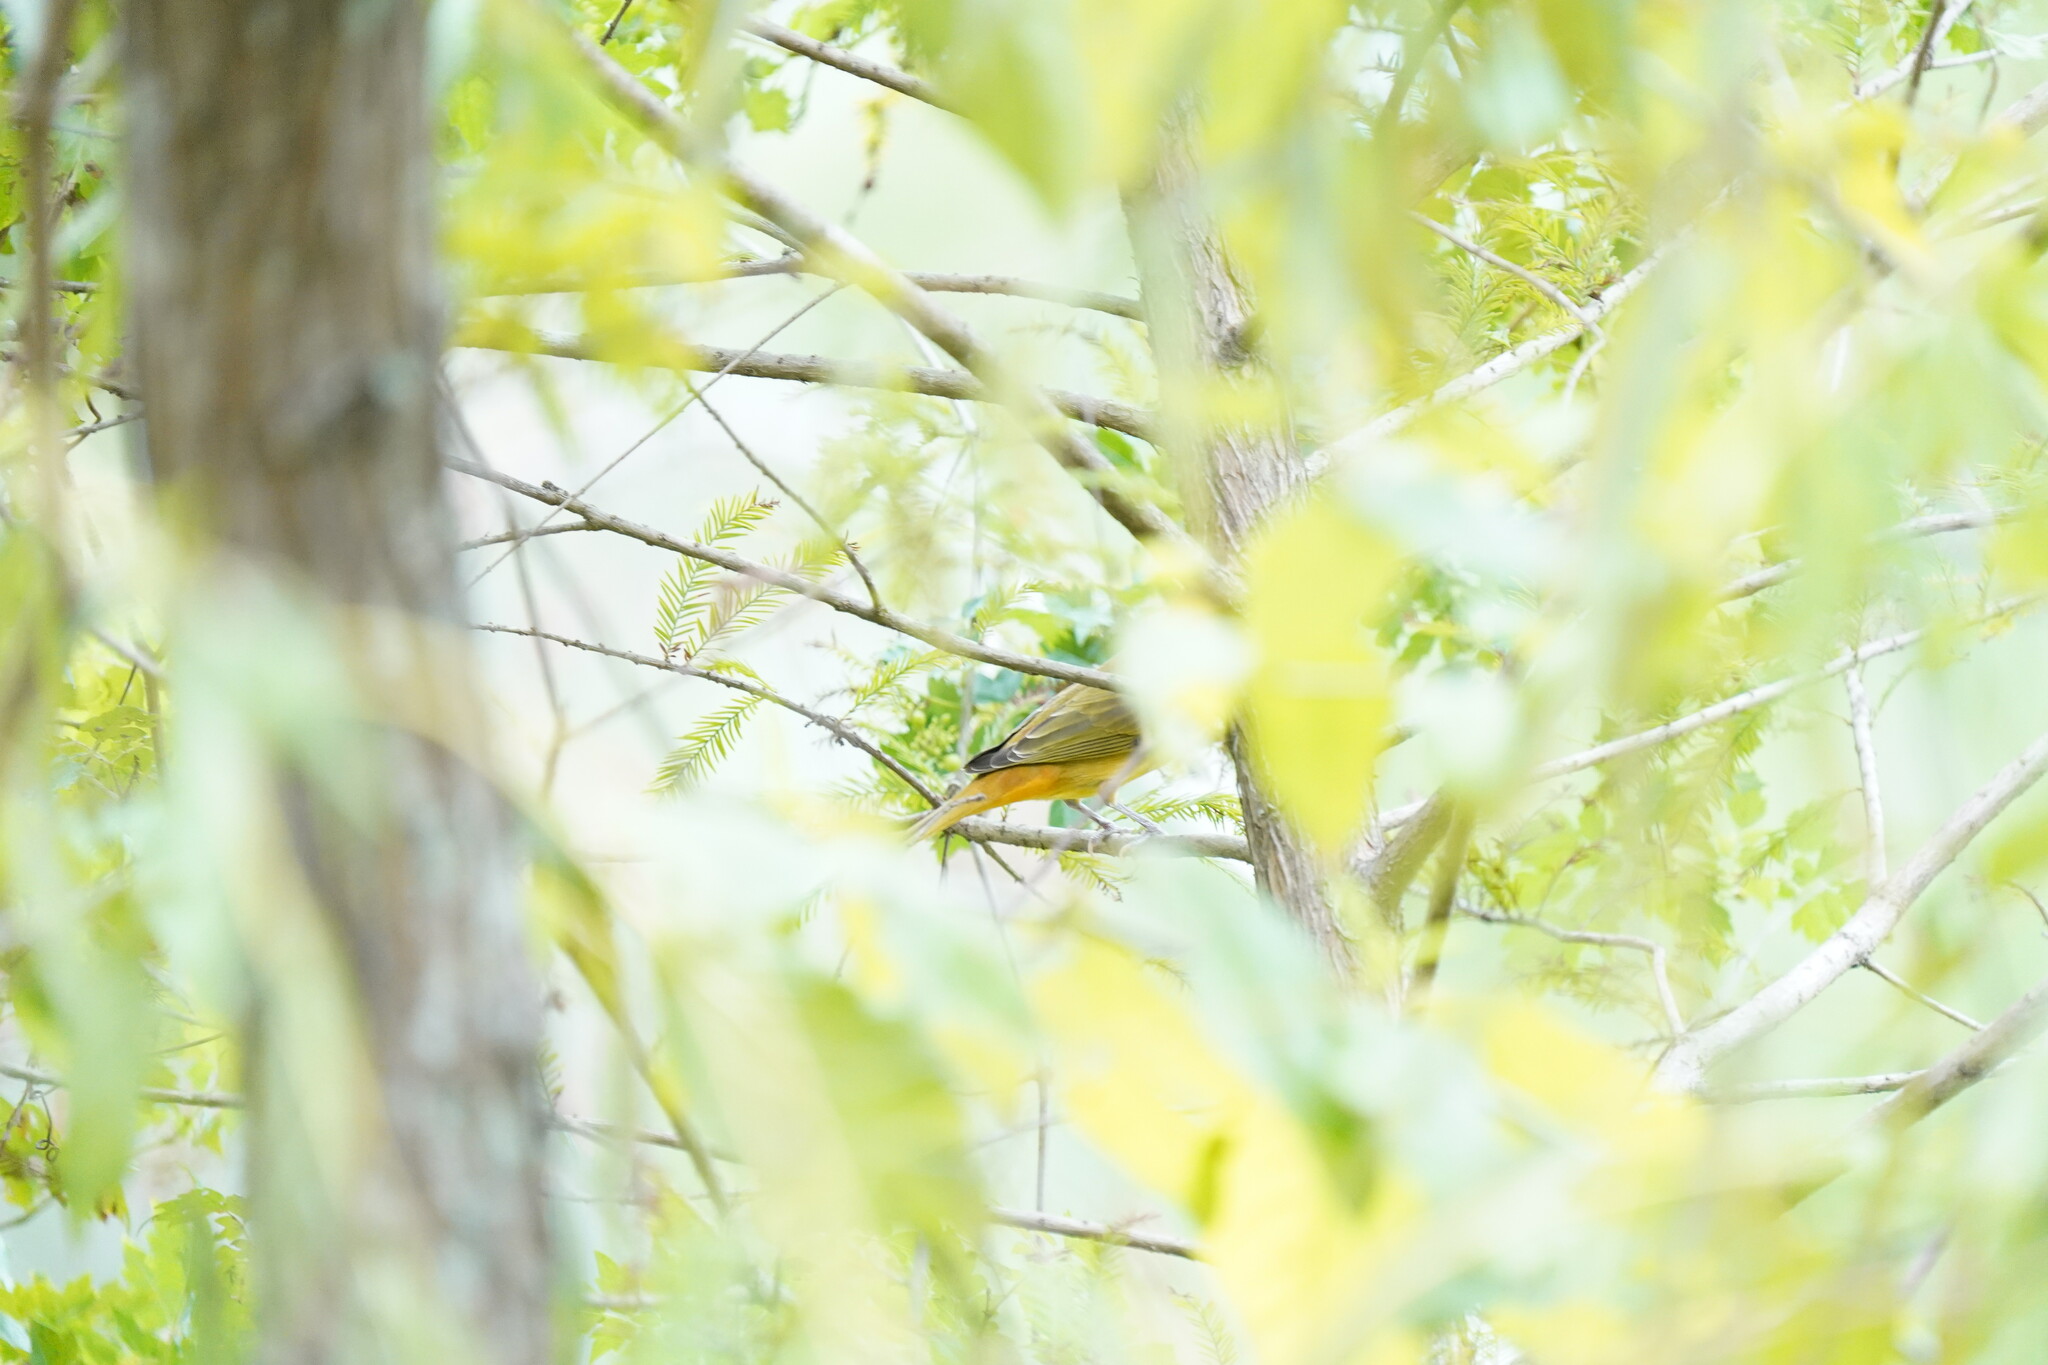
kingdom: Animalia
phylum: Chordata
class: Aves
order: Passeriformes
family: Cardinalidae
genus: Piranga
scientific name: Piranga rubra
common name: Summer tanager
